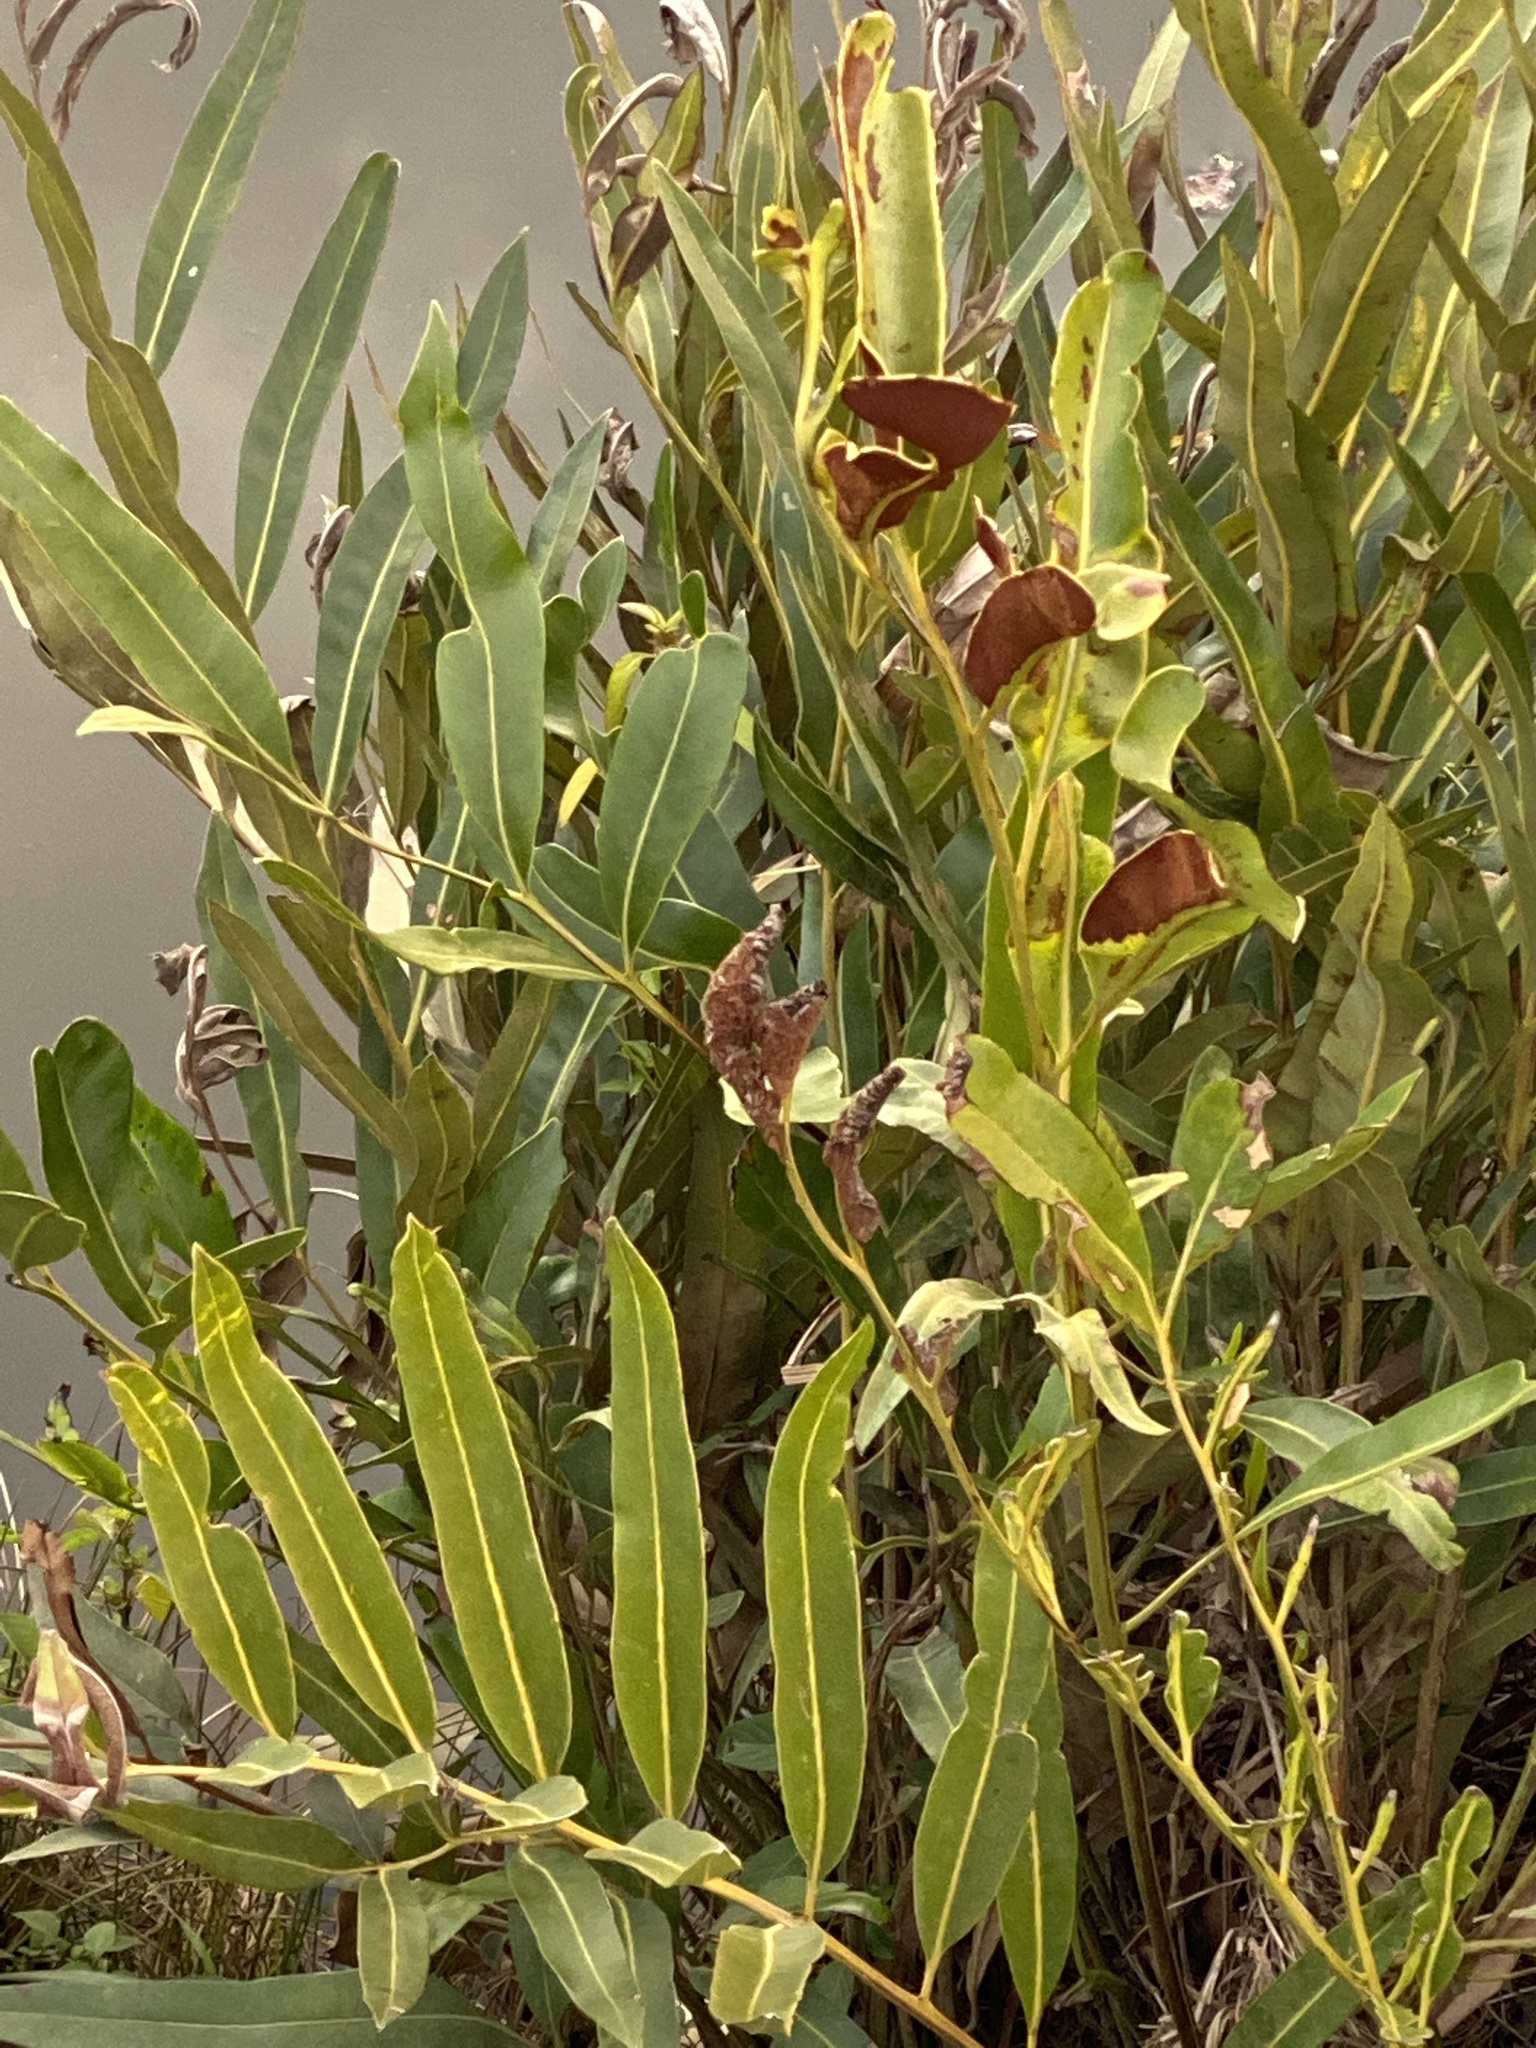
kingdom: Plantae
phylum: Tracheophyta
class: Polypodiopsida
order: Polypodiales
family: Pteridaceae
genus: Acrostichum
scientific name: Acrostichum speciosum
